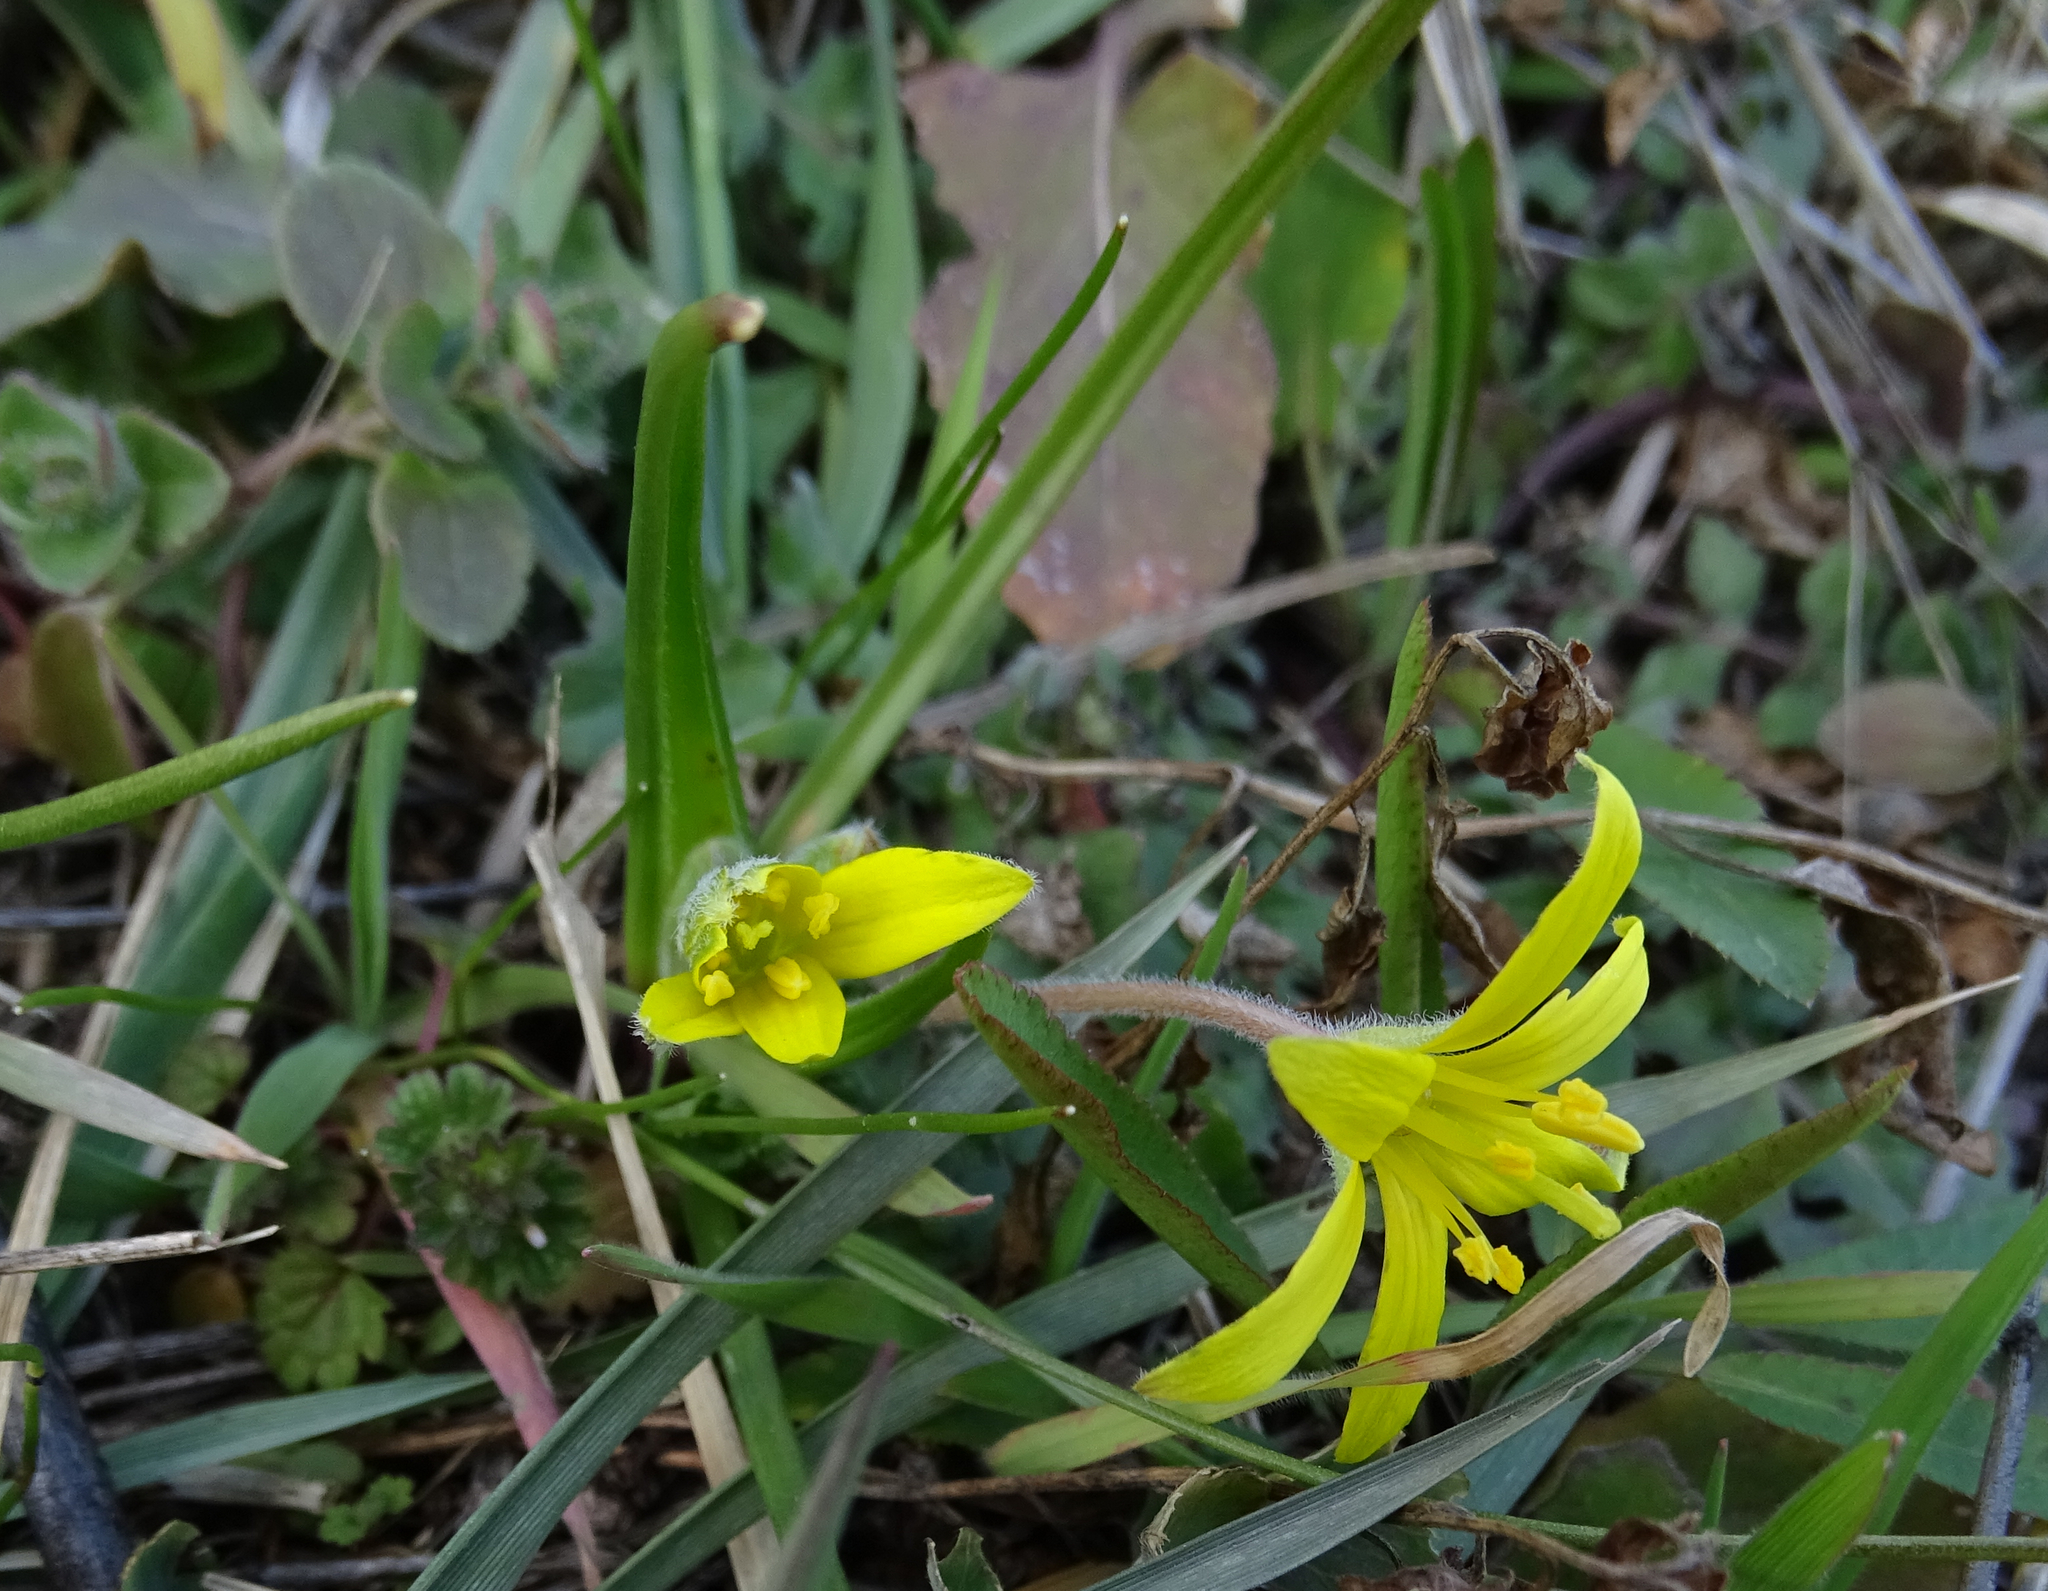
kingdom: Plantae
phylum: Tracheophyta
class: Liliopsida
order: Liliales
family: Liliaceae
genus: Gagea
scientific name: Gagea villosa
